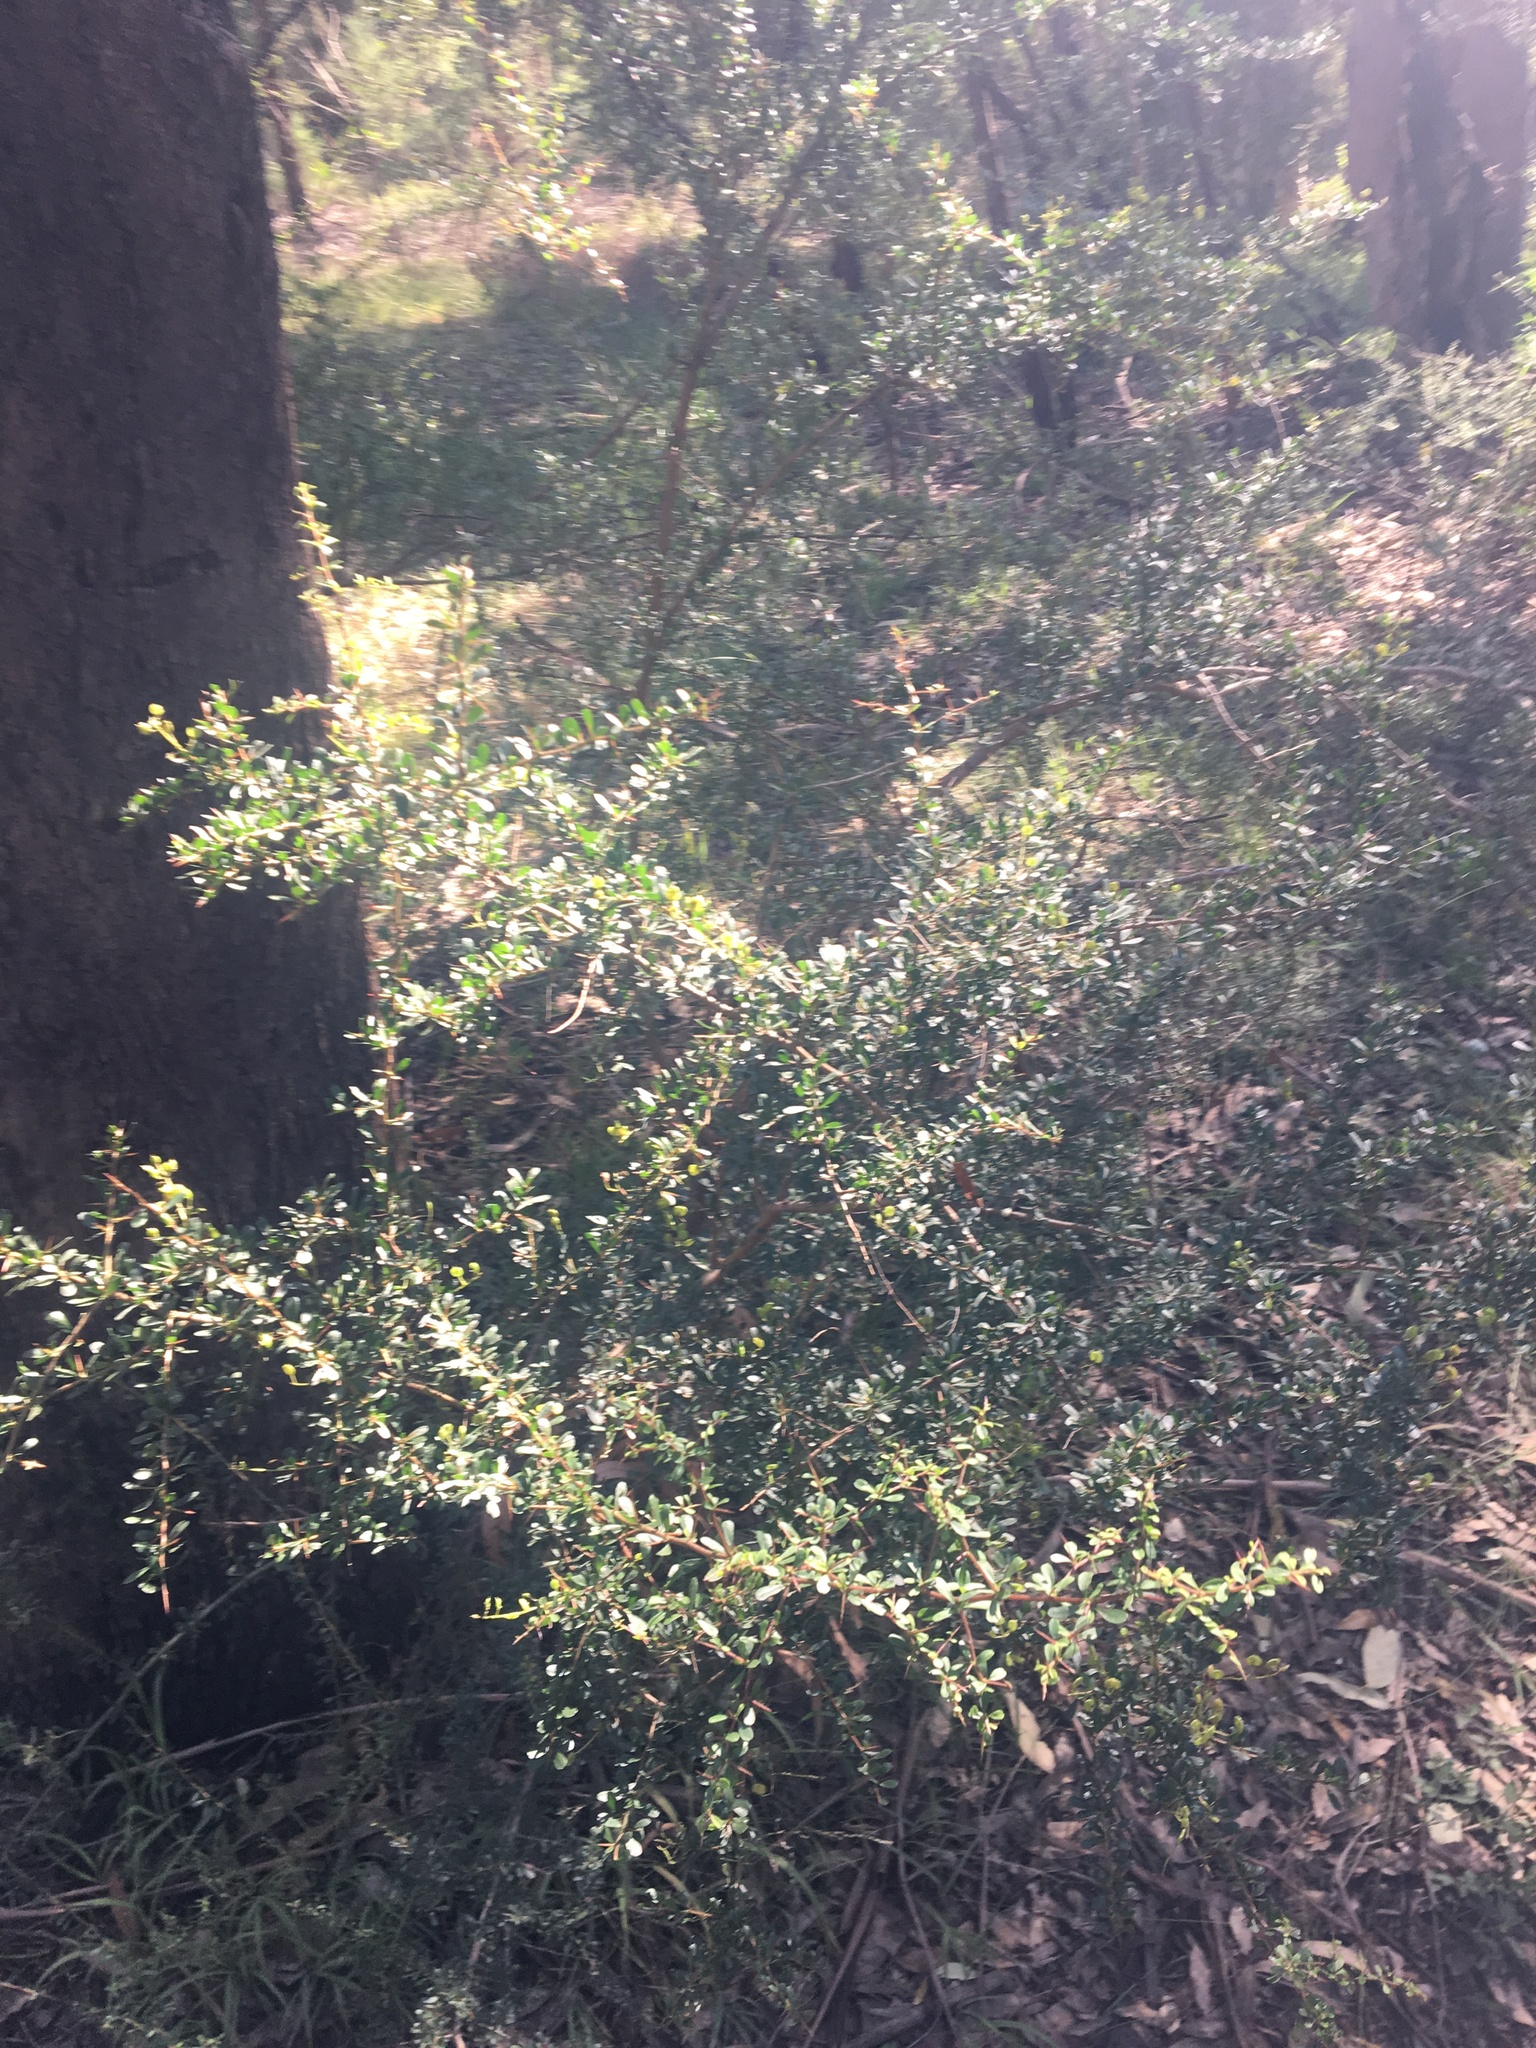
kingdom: Plantae
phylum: Tracheophyta
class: Magnoliopsida
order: Apiales
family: Pittosporaceae
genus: Bursaria
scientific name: Bursaria spinosa
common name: Australian blackthorn
